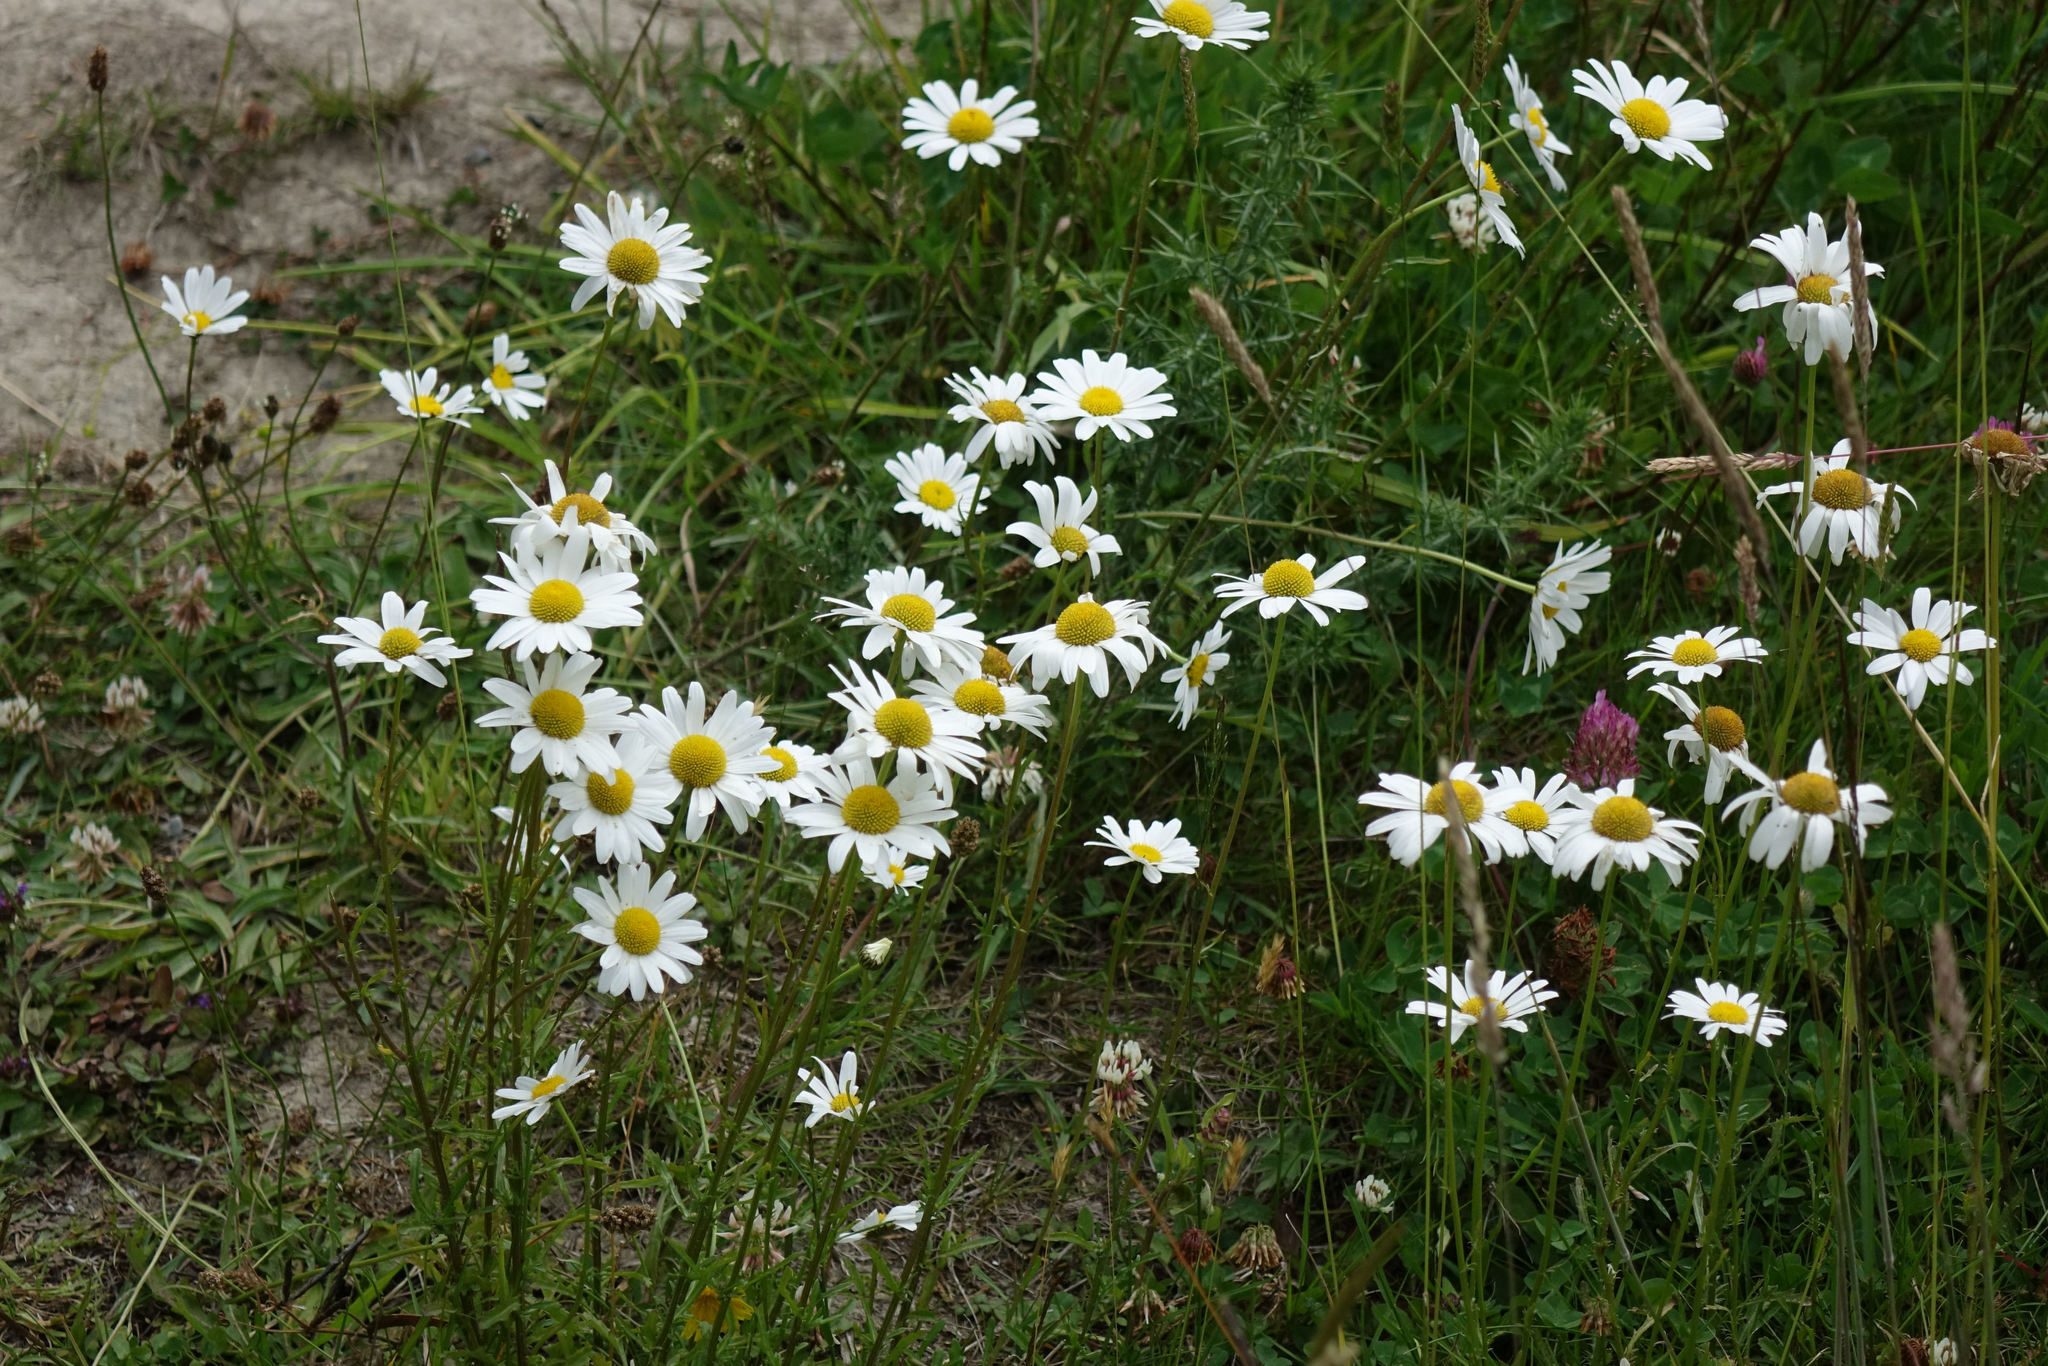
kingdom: Plantae
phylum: Tracheophyta
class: Magnoliopsida
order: Asterales
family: Asteraceae
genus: Leucanthemum
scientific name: Leucanthemum vulgare
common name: Oxeye daisy
